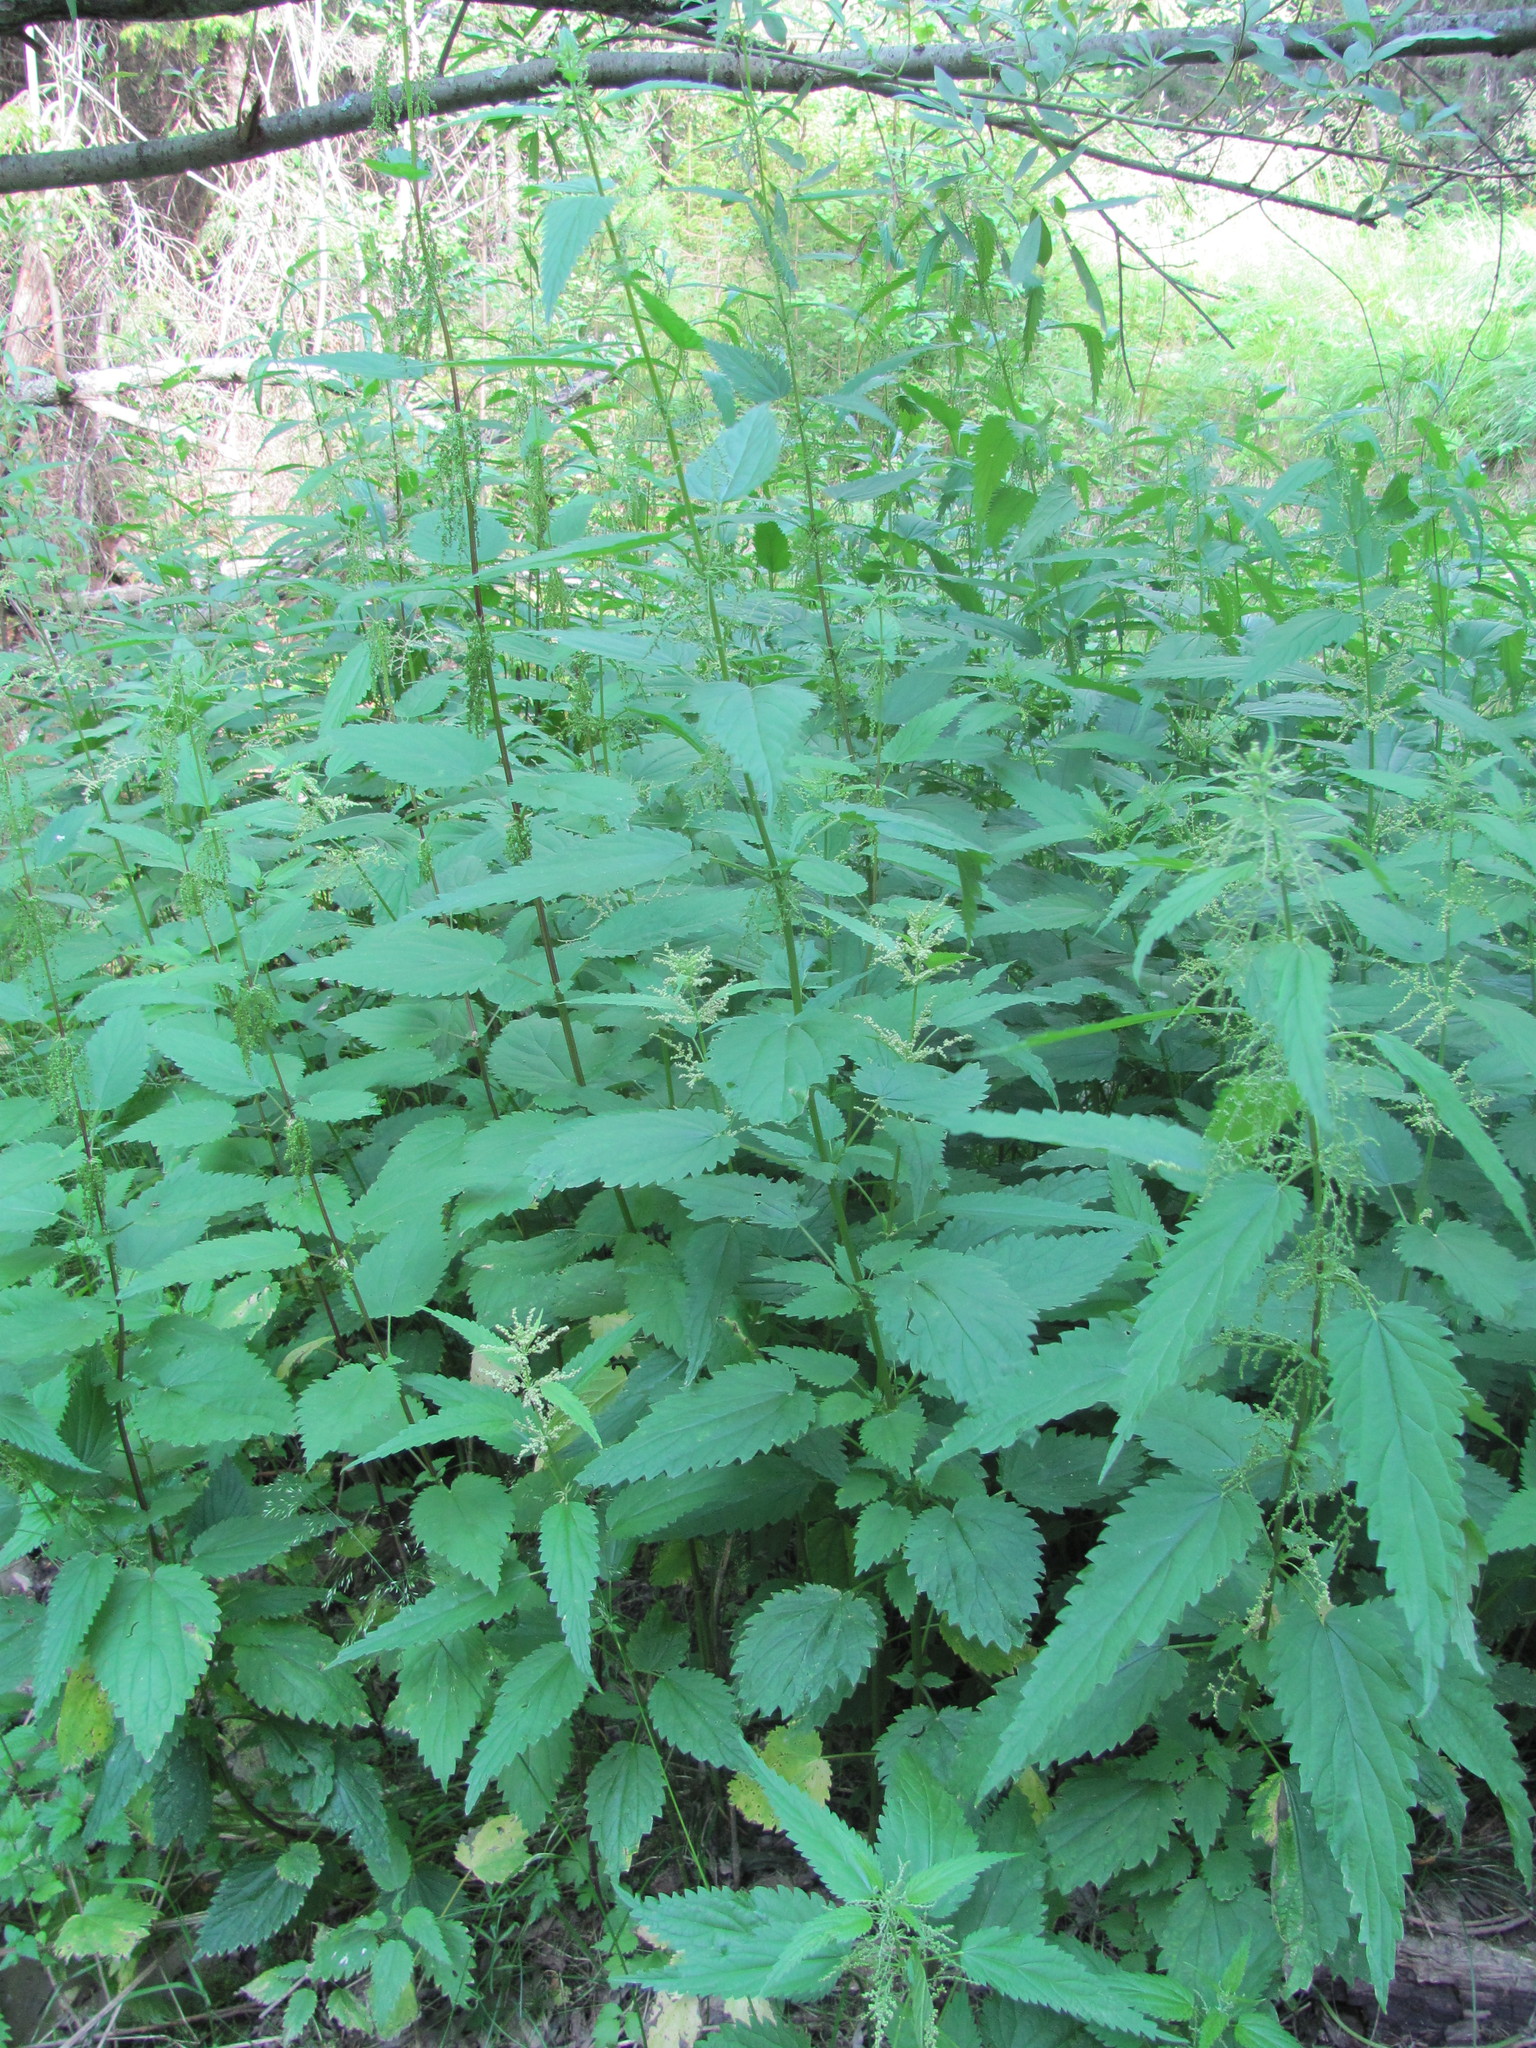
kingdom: Plantae
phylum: Tracheophyta
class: Magnoliopsida
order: Rosales
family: Urticaceae
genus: Urtica
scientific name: Urtica dioica
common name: Common nettle
